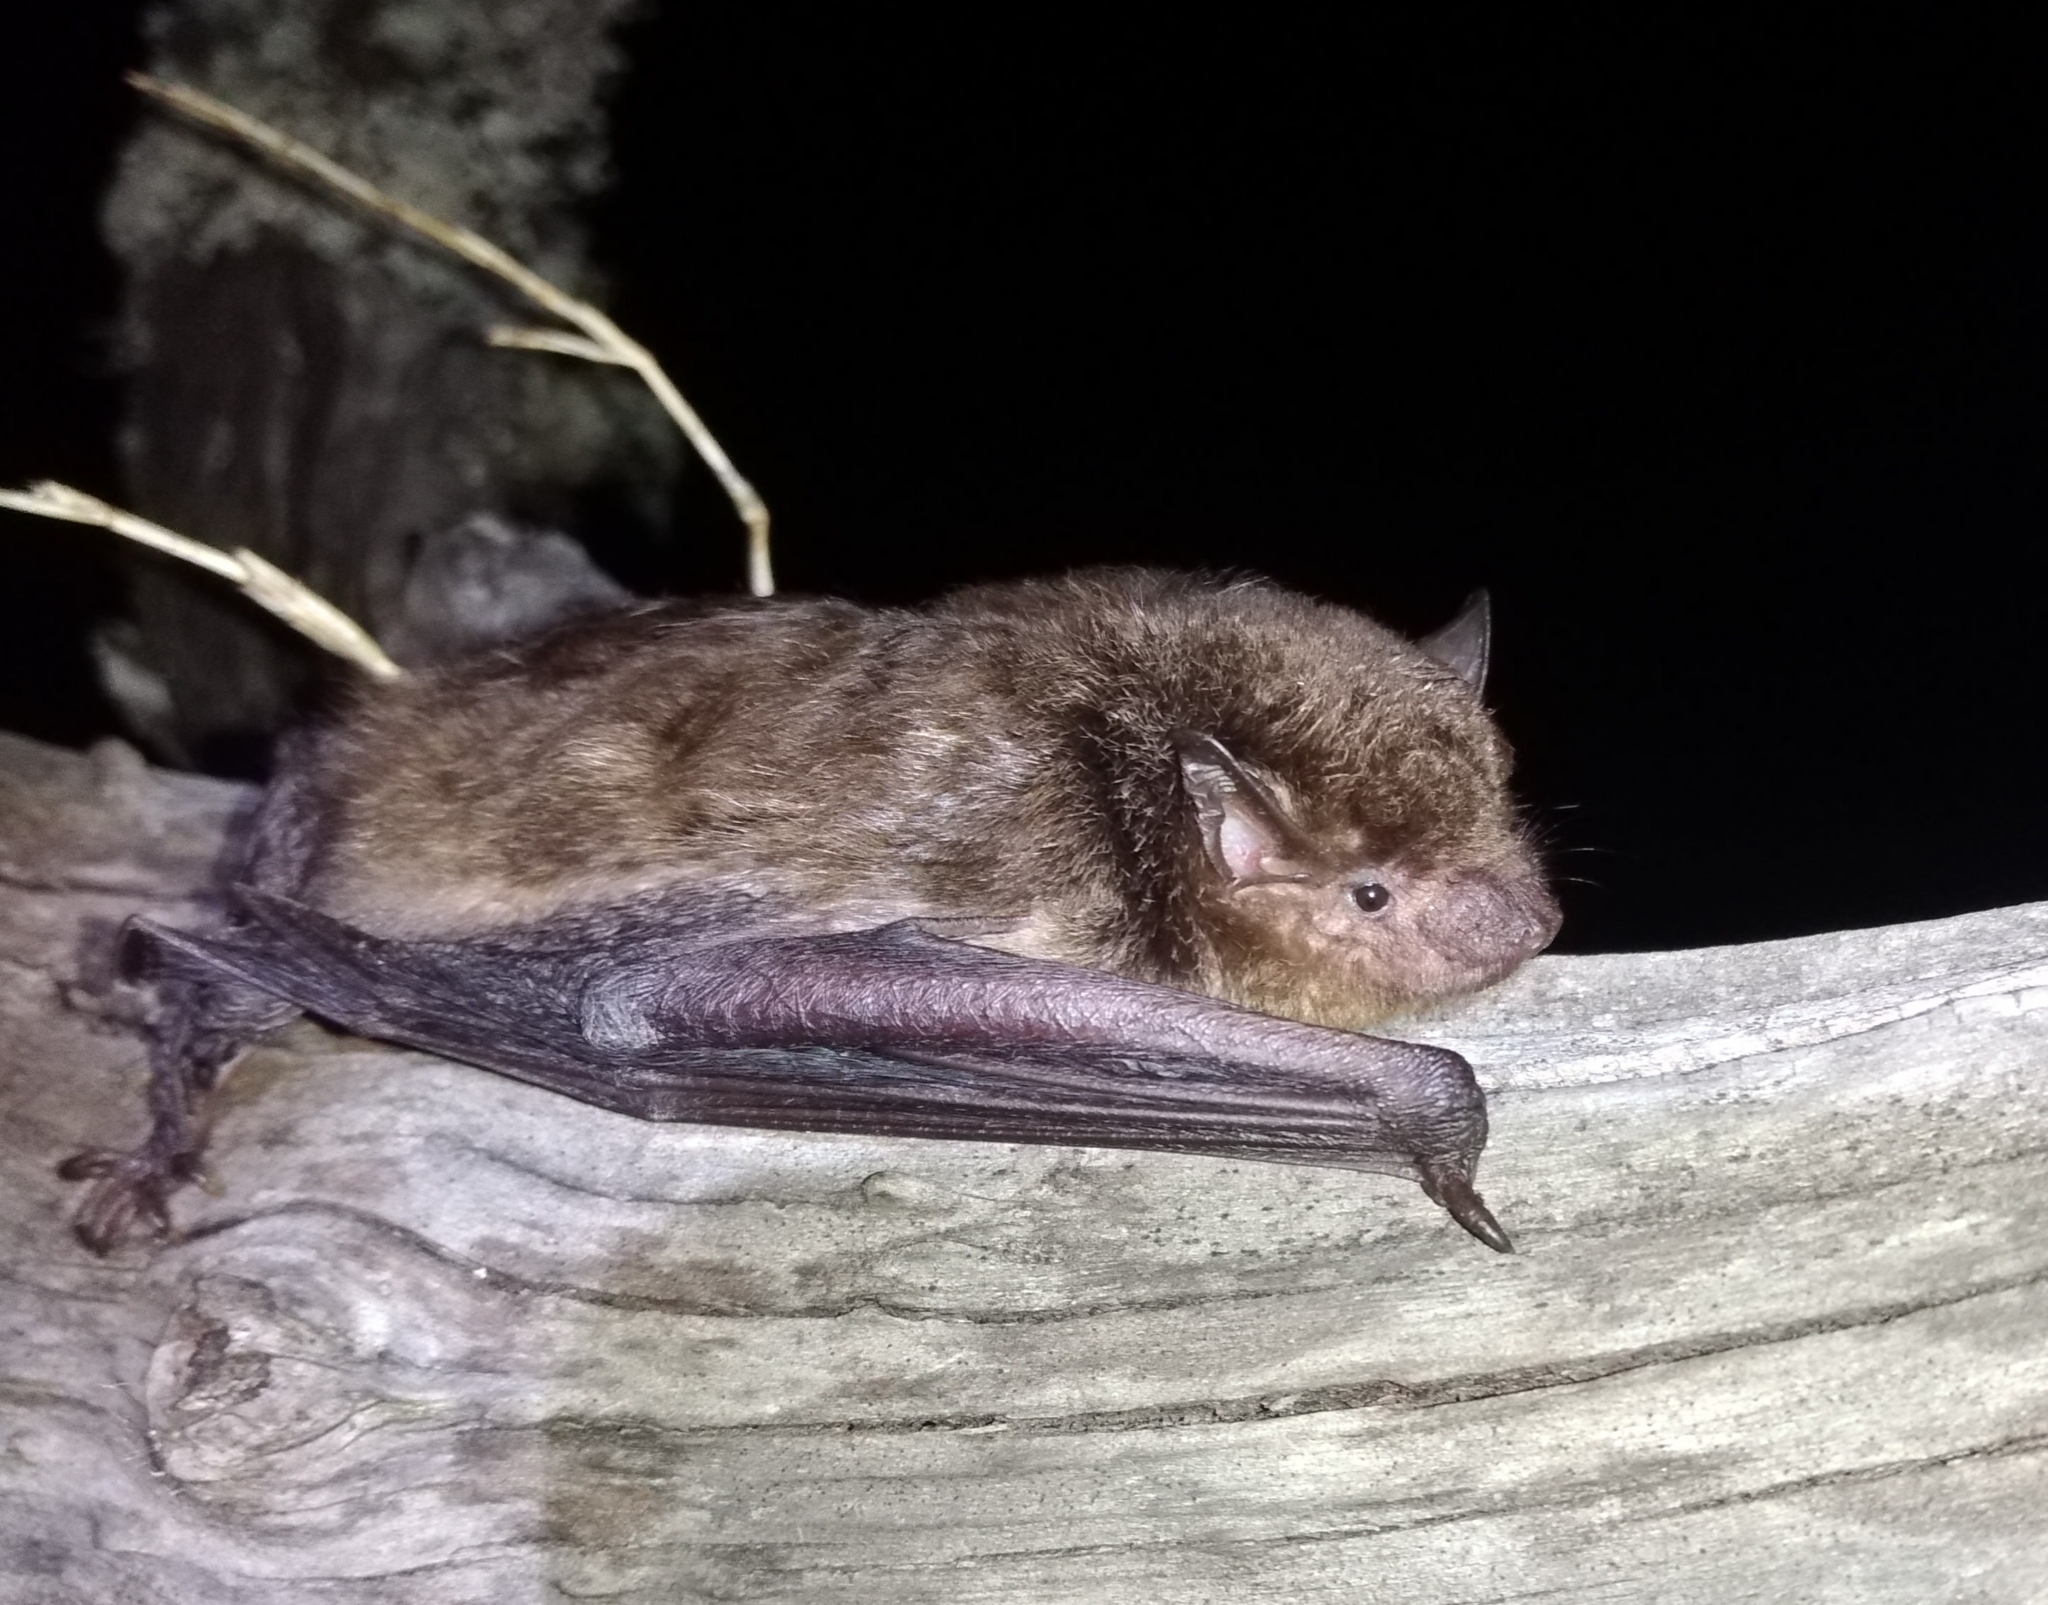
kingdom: Animalia
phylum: Chordata
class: Mammalia
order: Chiroptera
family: Vespertilionidae
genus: Eptesicus
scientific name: Eptesicus furinalis
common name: Argentinian brown bat
